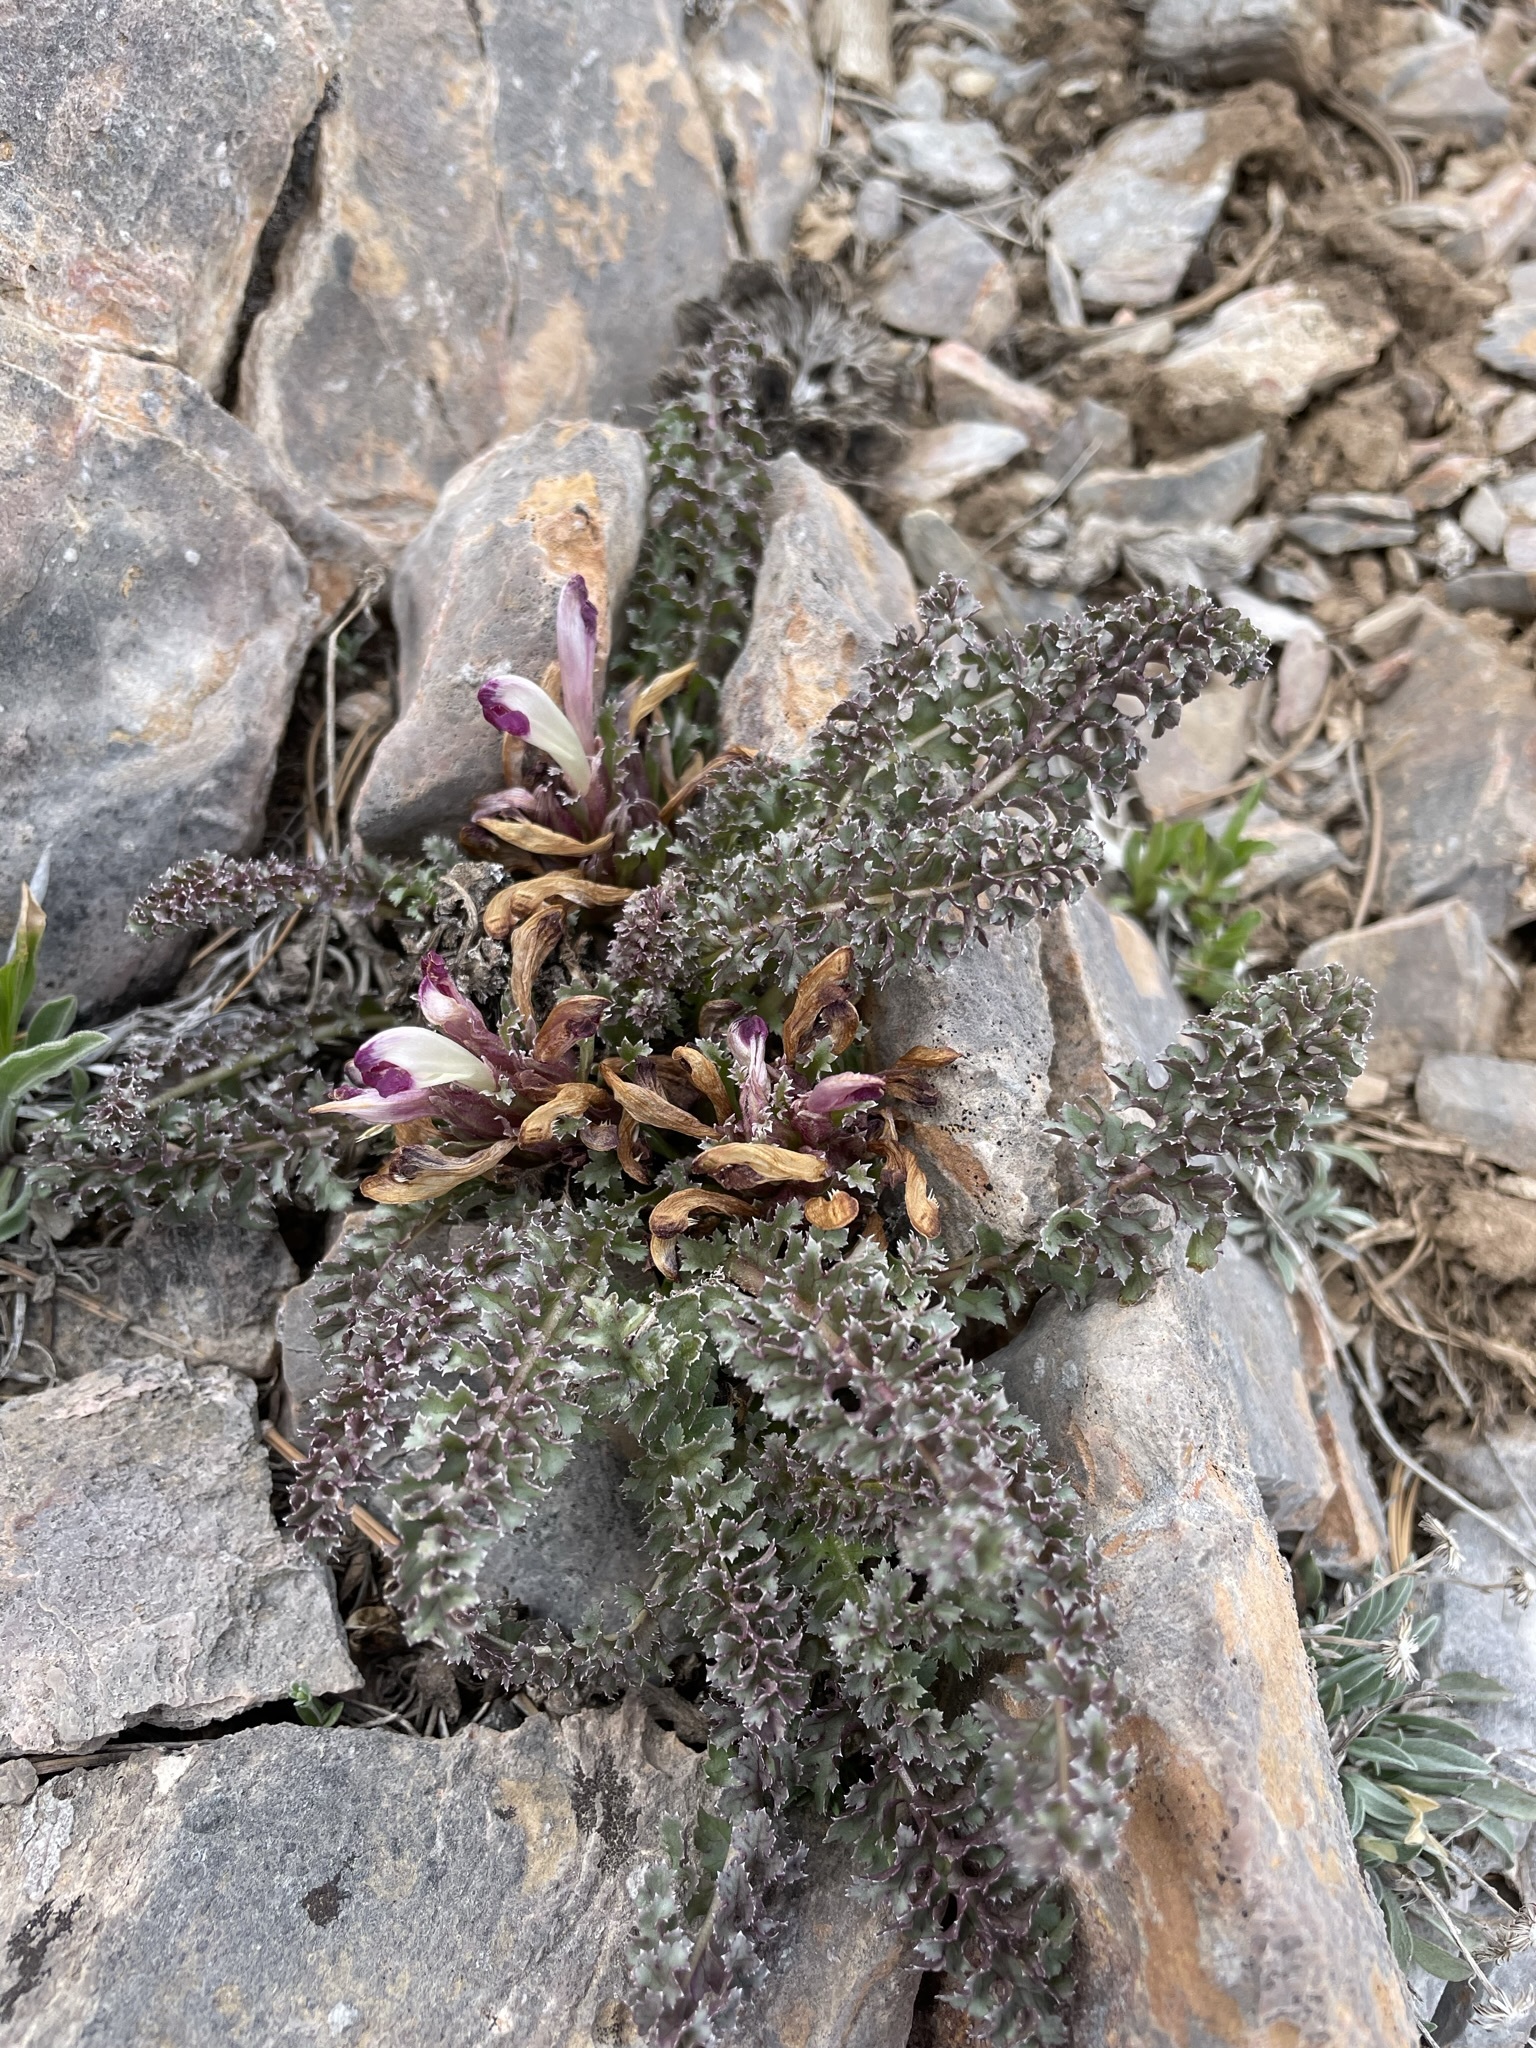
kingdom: Plantae
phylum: Tracheophyta
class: Magnoliopsida
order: Lamiales
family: Orobanchaceae
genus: Pedicularis
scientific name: Pedicularis centranthera
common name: Dwarf lousewort
